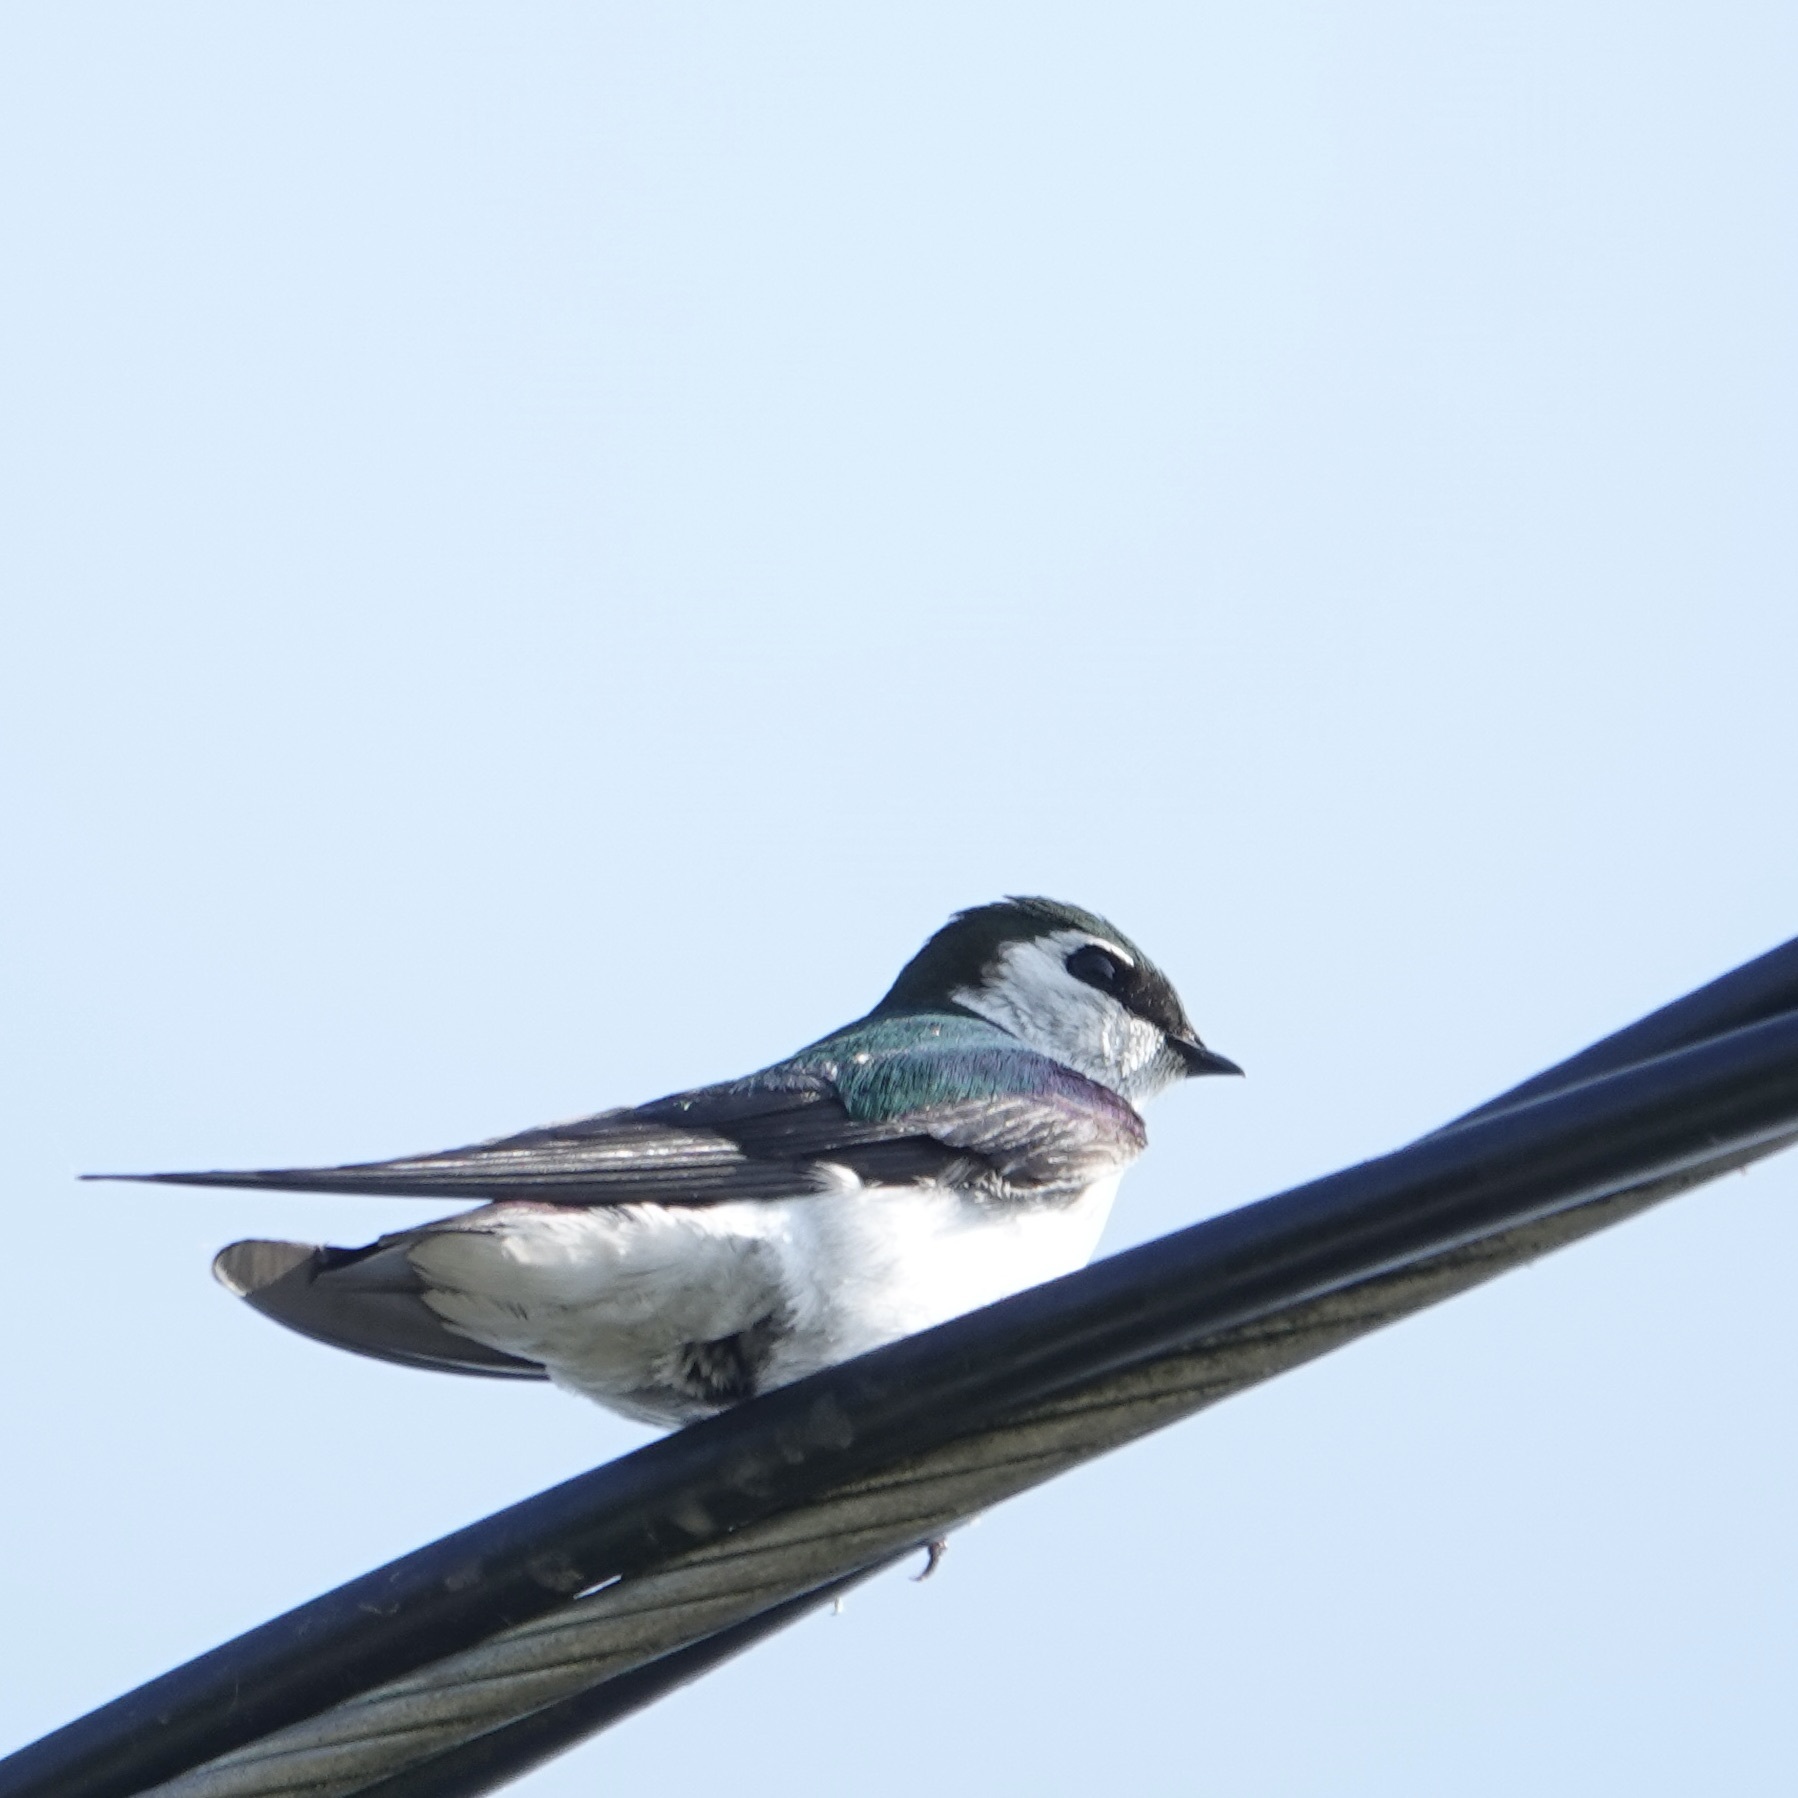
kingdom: Animalia
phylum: Chordata
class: Aves
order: Passeriformes
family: Hirundinidae
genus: Tachycineta
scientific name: Tachycineta thalassina
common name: Violet-green swallow
